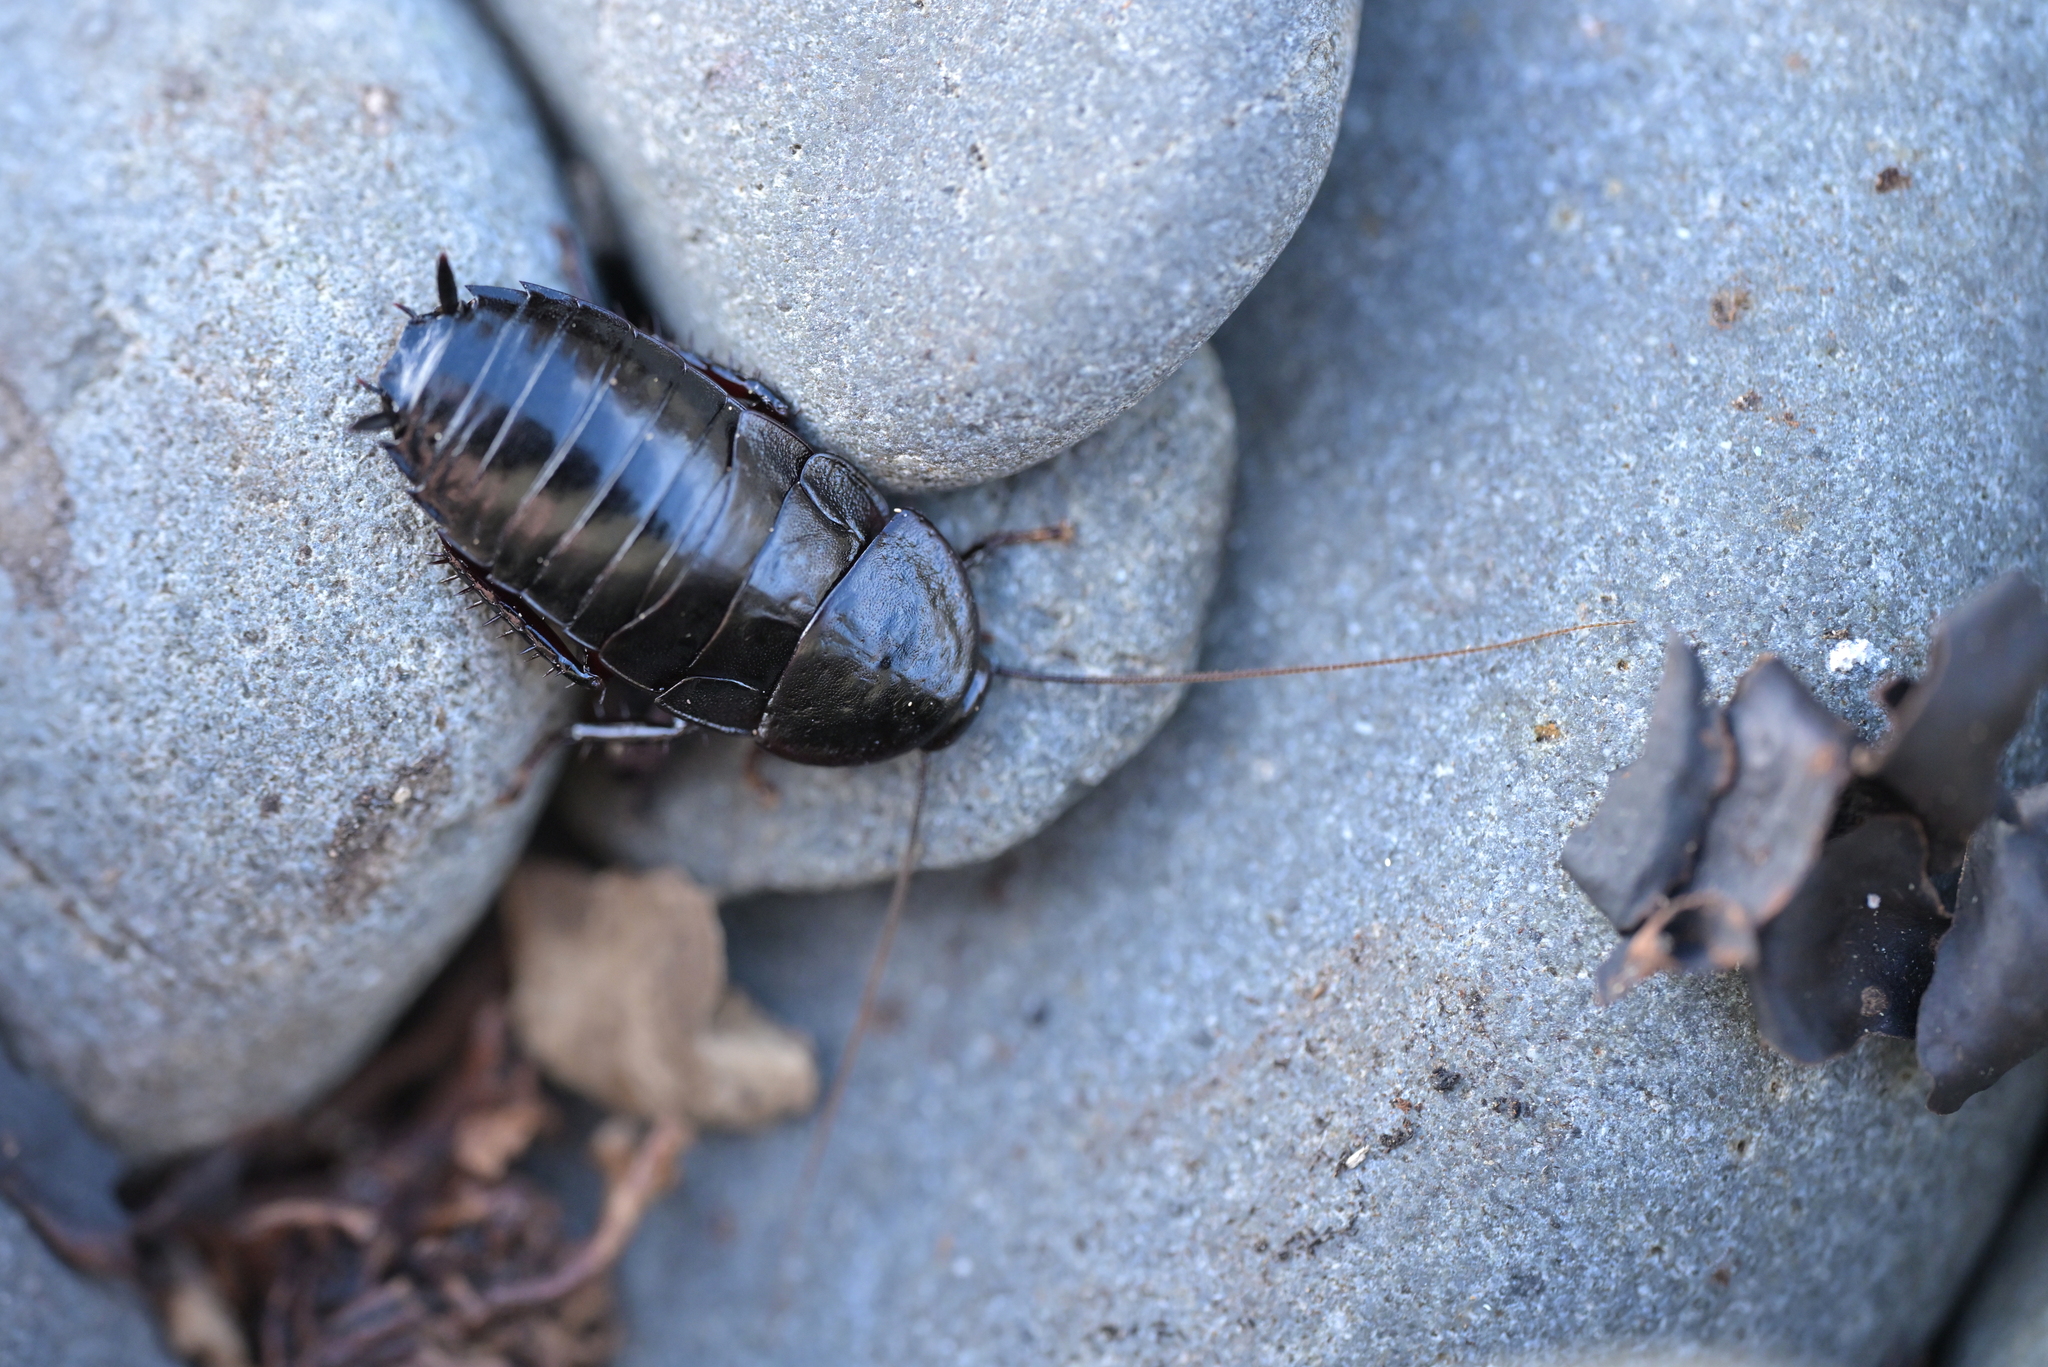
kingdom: Animalia
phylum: Arthropoda
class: Insecta
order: Blattodea
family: Blattidae
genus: Maoriblatta
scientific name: Maoriblatta novaeseelandiae
